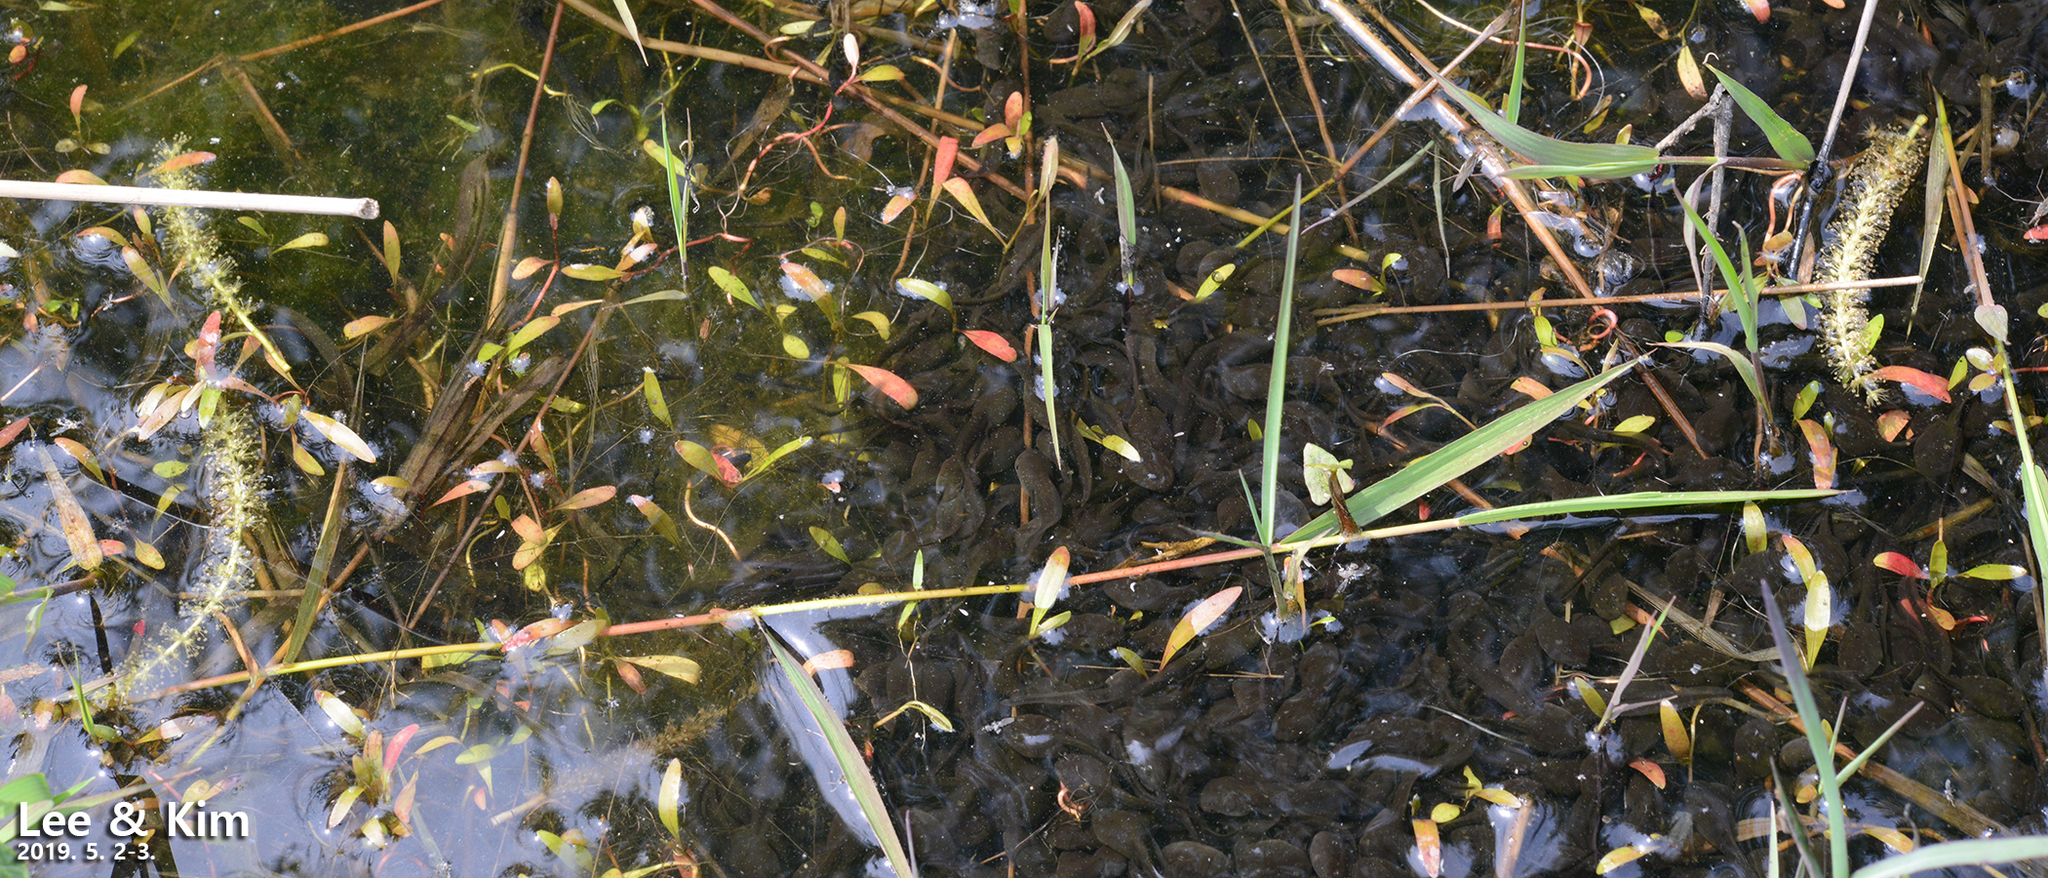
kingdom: Animalia
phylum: Chordata
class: Amphibia
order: Anura
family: Bufonidae
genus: Bufo
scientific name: Bufo gargarizans
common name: Asiatic toad
